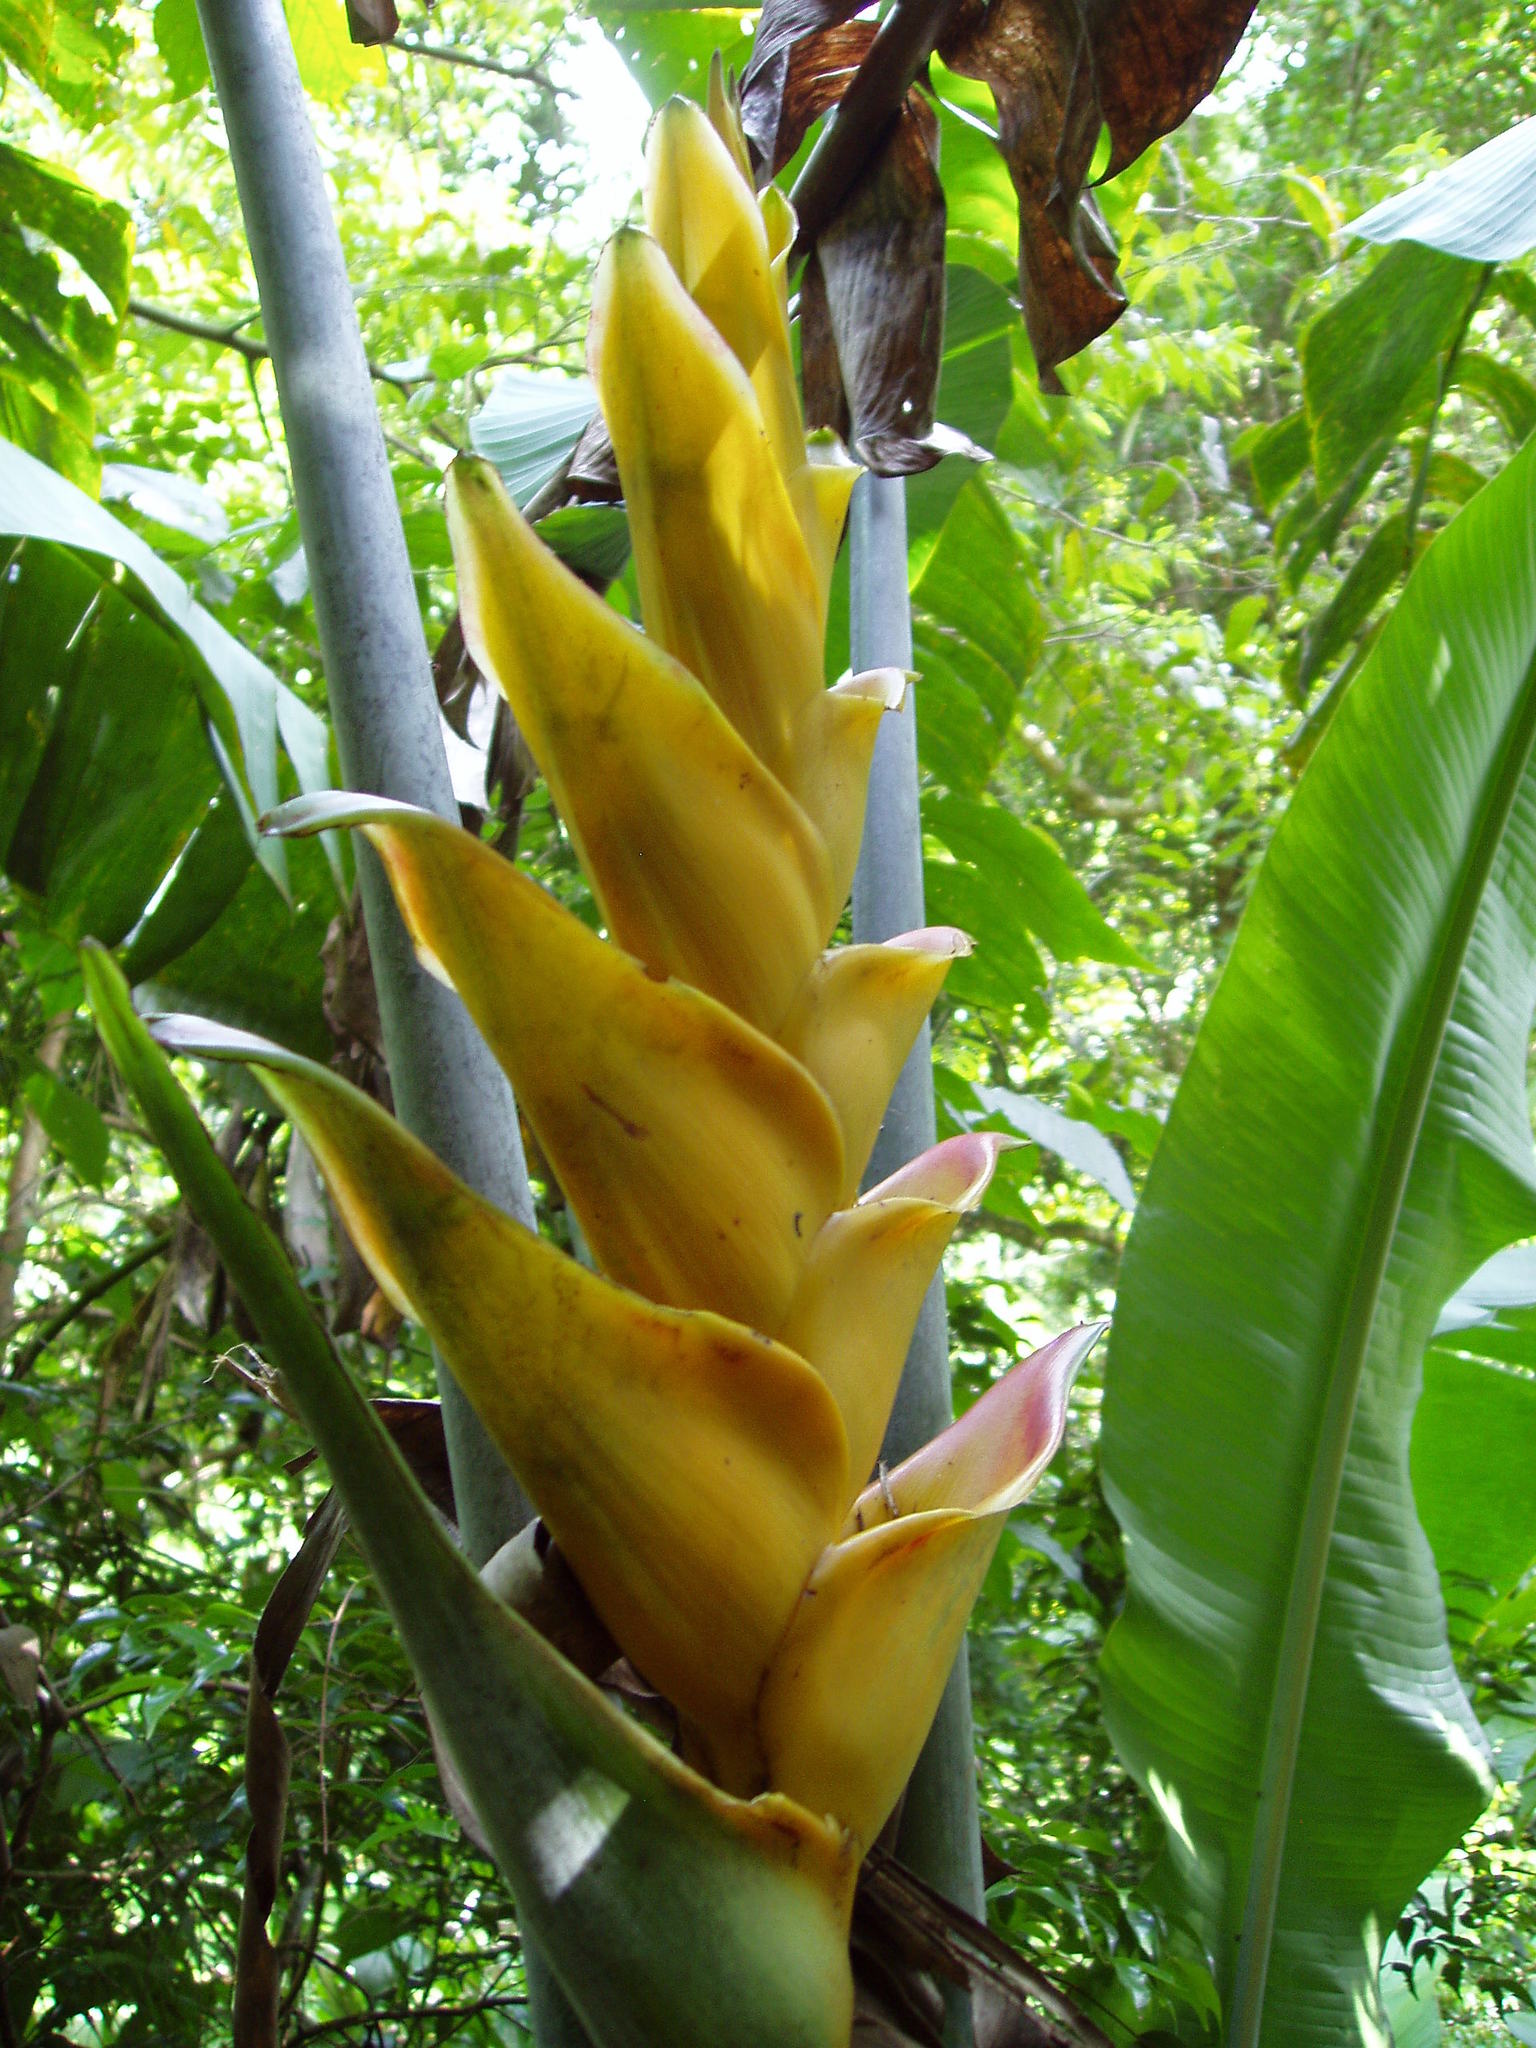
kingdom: Plantae
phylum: Tracheophyta
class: Liliopsida
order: Zingiberales
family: Heliconiaceae
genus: Heliconia
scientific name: Heliconia caribaea
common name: Wild plantain
